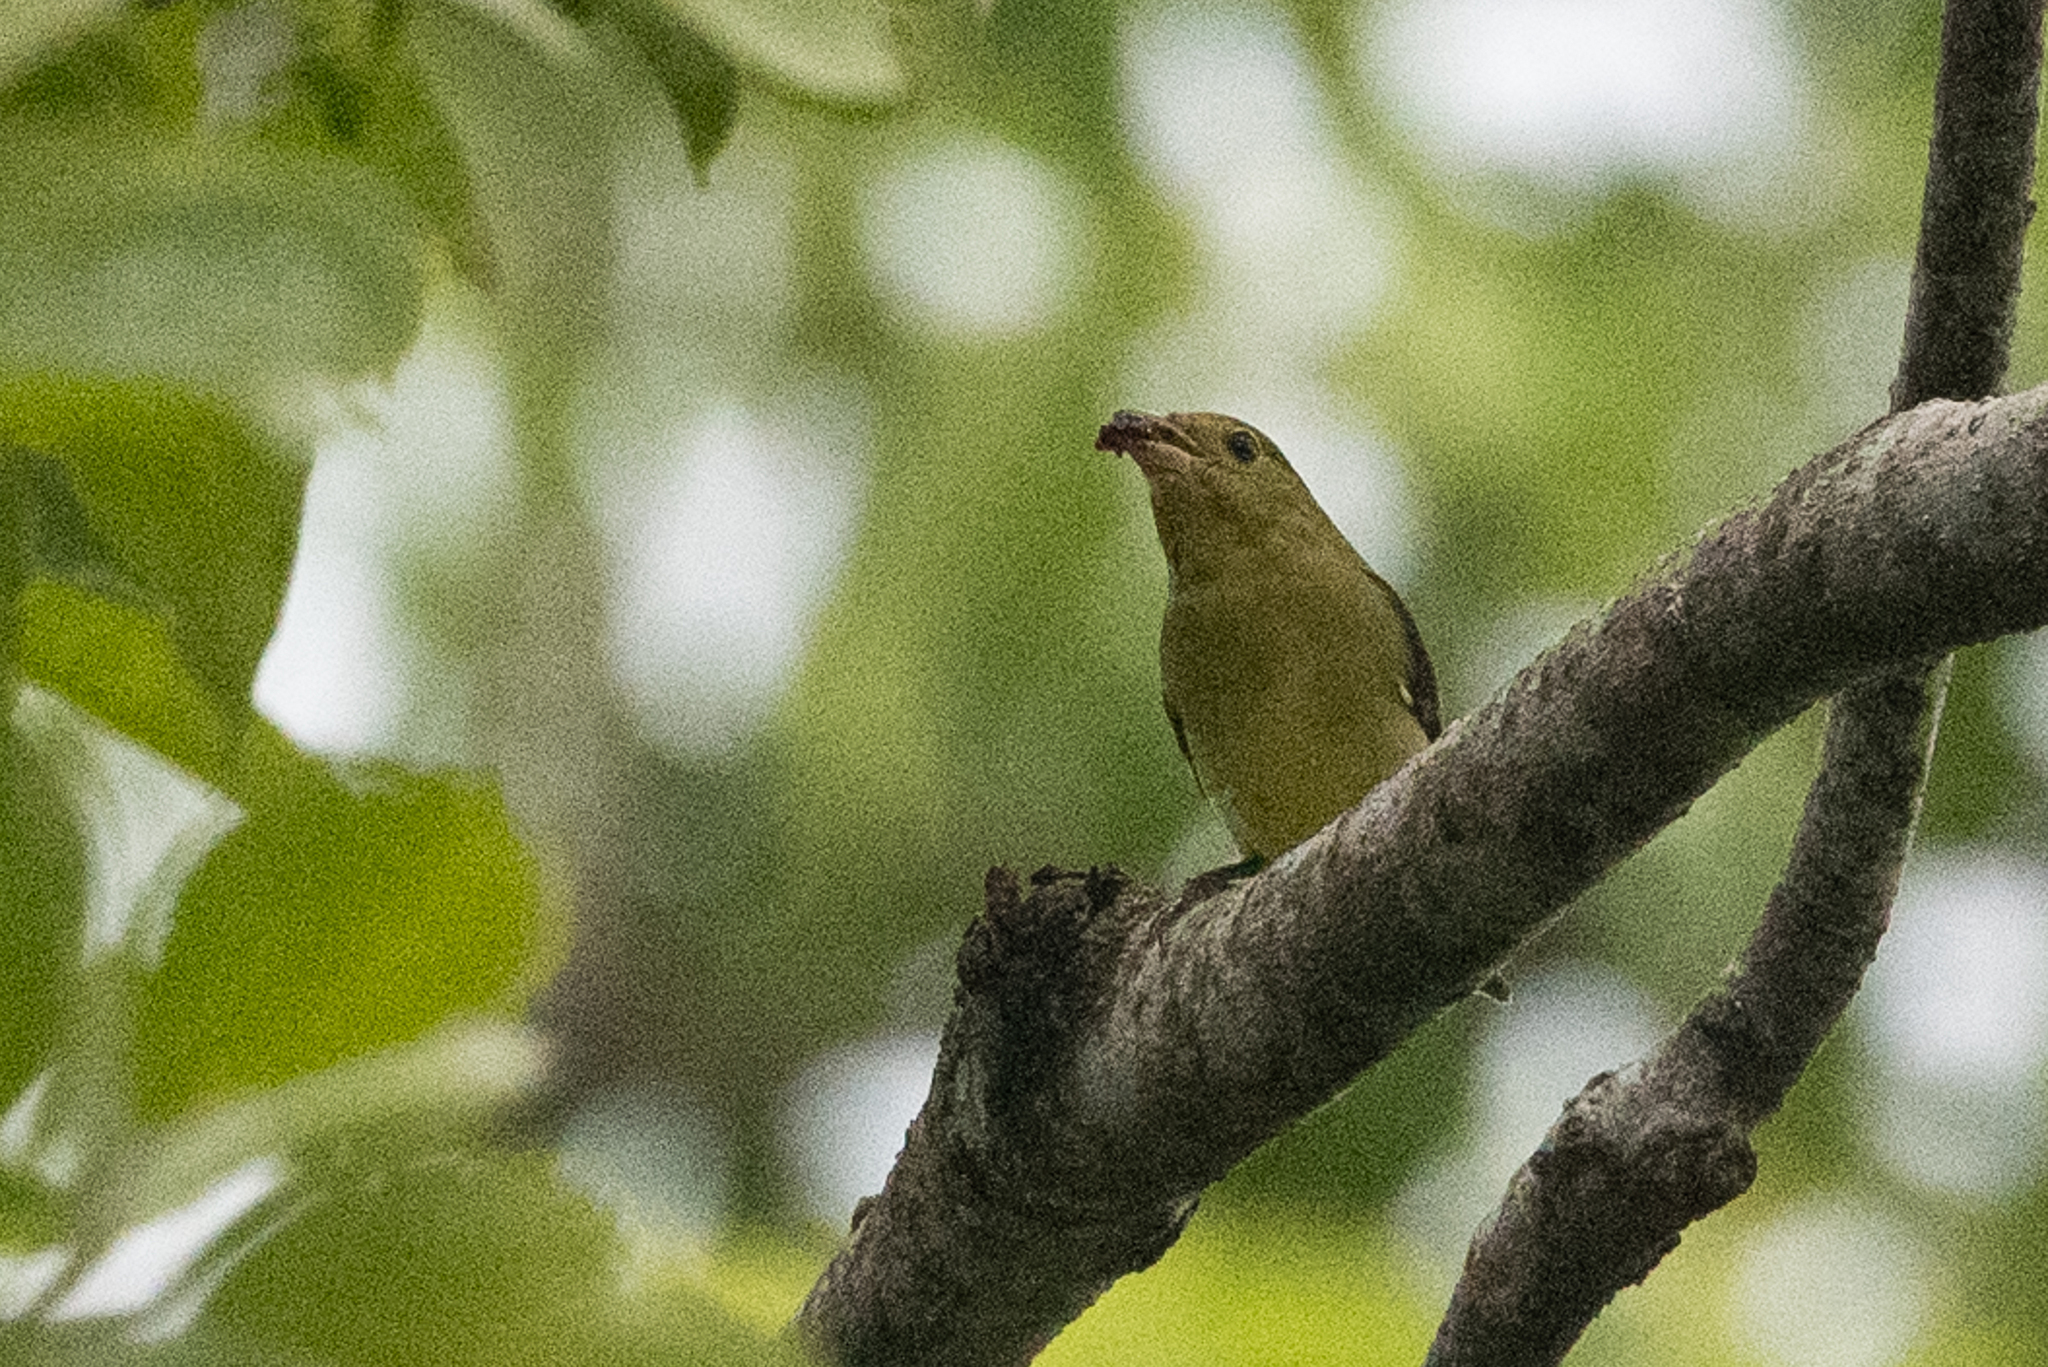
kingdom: Animalia
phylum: Chordata
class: Aves
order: Passeriformes
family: Cardinalidae
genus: Piranga
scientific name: Piranga olivacea
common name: Scarlet tanager
